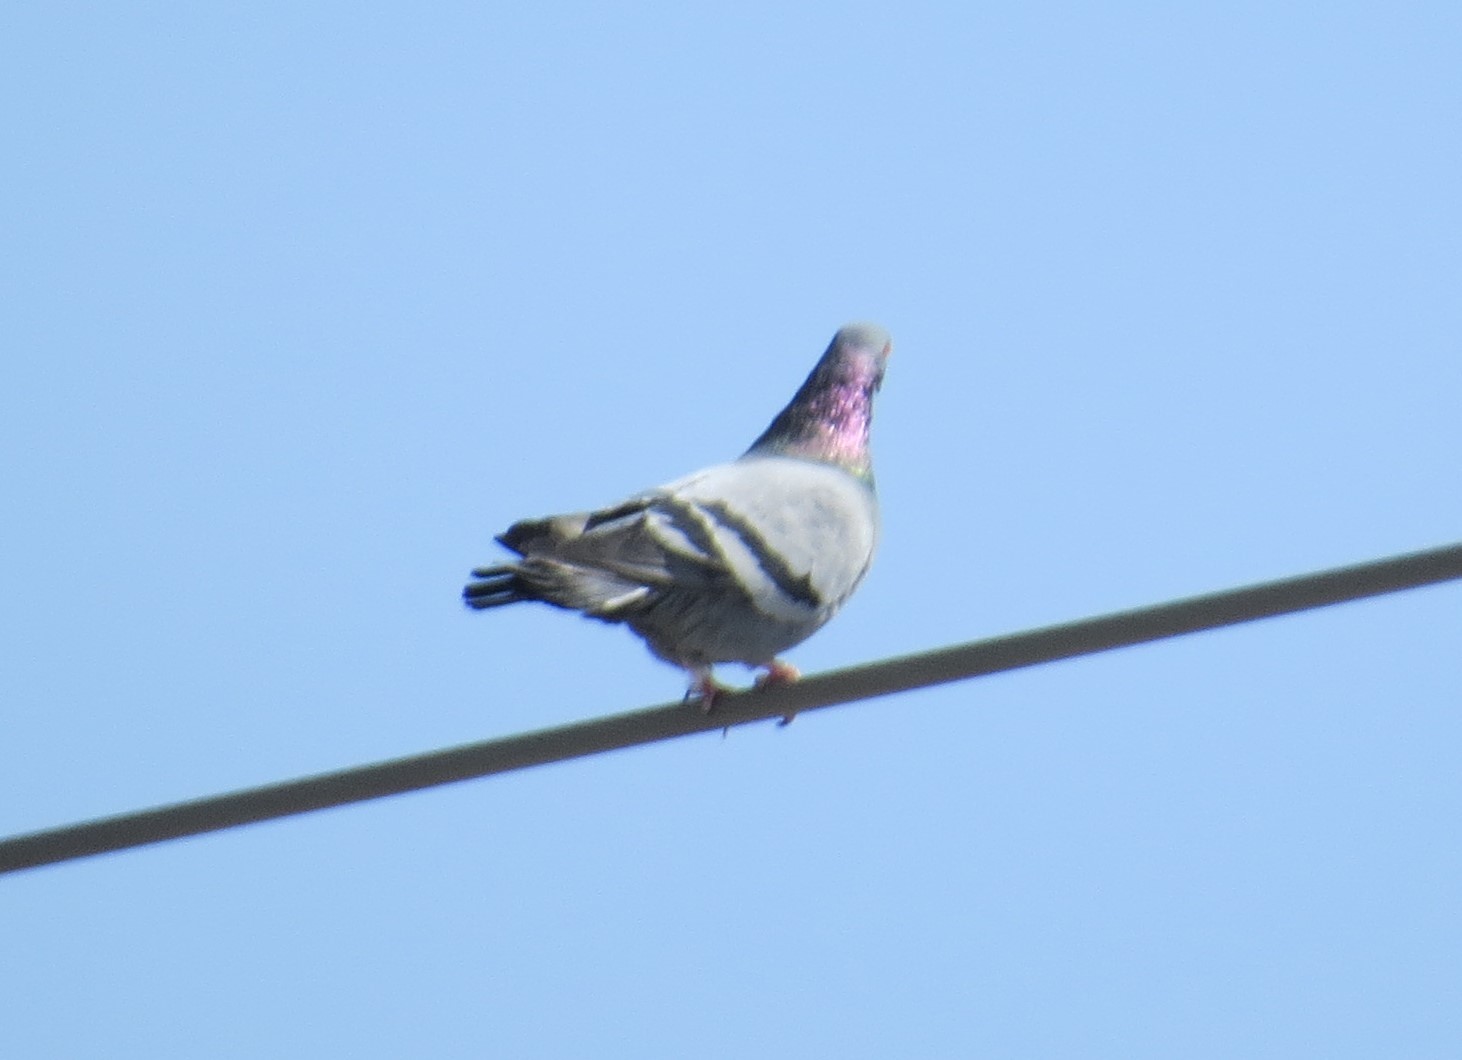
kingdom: Animalia
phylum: Chordata
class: Aves
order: Columbiformes
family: Columbidae
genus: Columba
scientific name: Columba livia
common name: Rock pigeon
